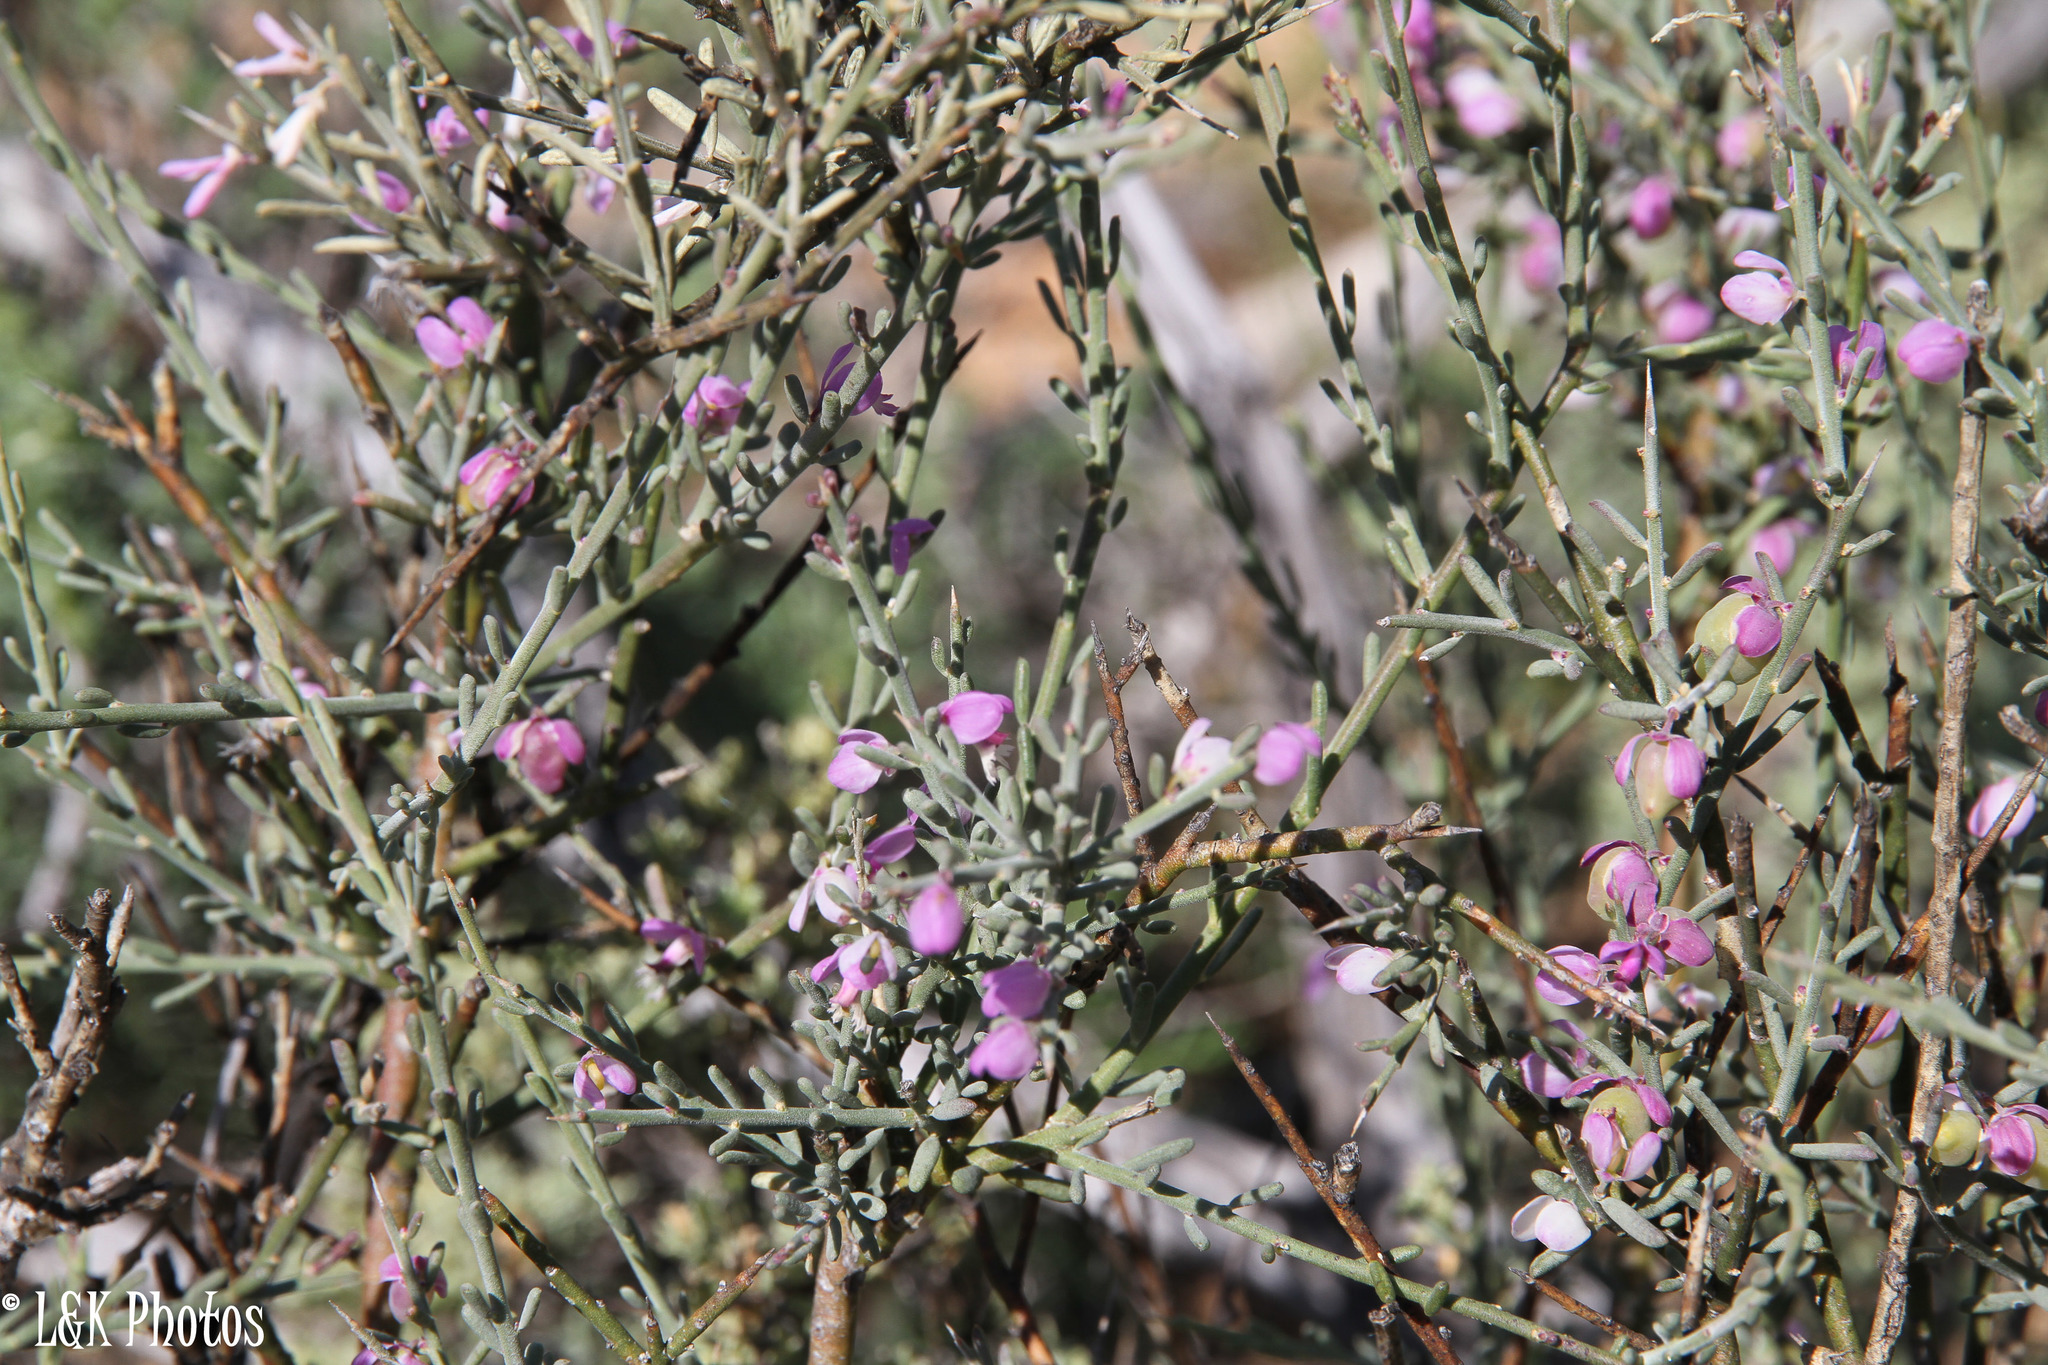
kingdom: Plantae
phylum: Tracheophyta
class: Magnoliopsida
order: Fabales
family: Polygalaceae
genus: Muraltia
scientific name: Muraltia spinosa
